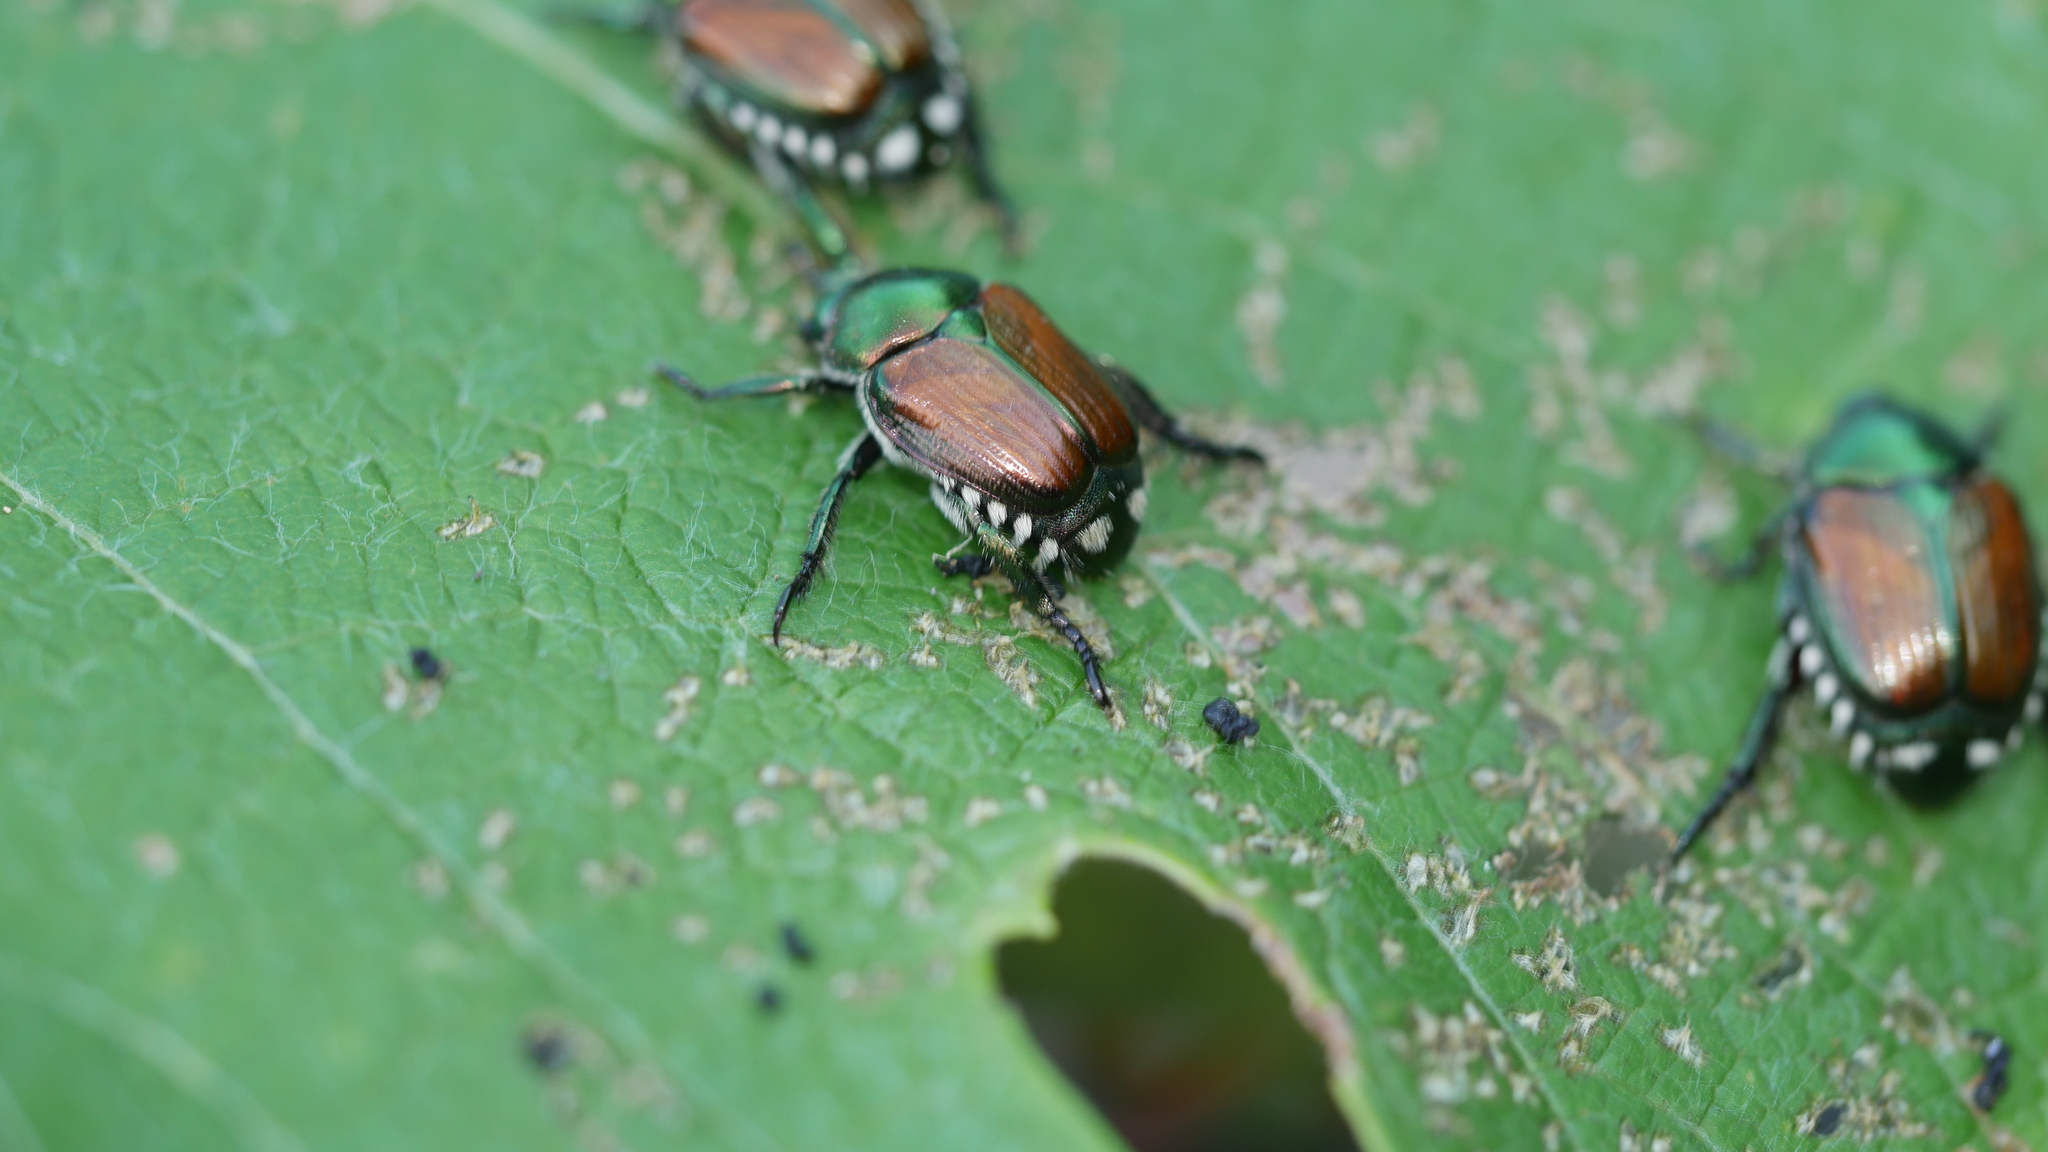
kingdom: Animalia
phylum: Arthropoda
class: Insecta
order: Coleoptera
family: Scarabaeidae
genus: Popillia
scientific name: Popillia japonica
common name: Japanese beetle
